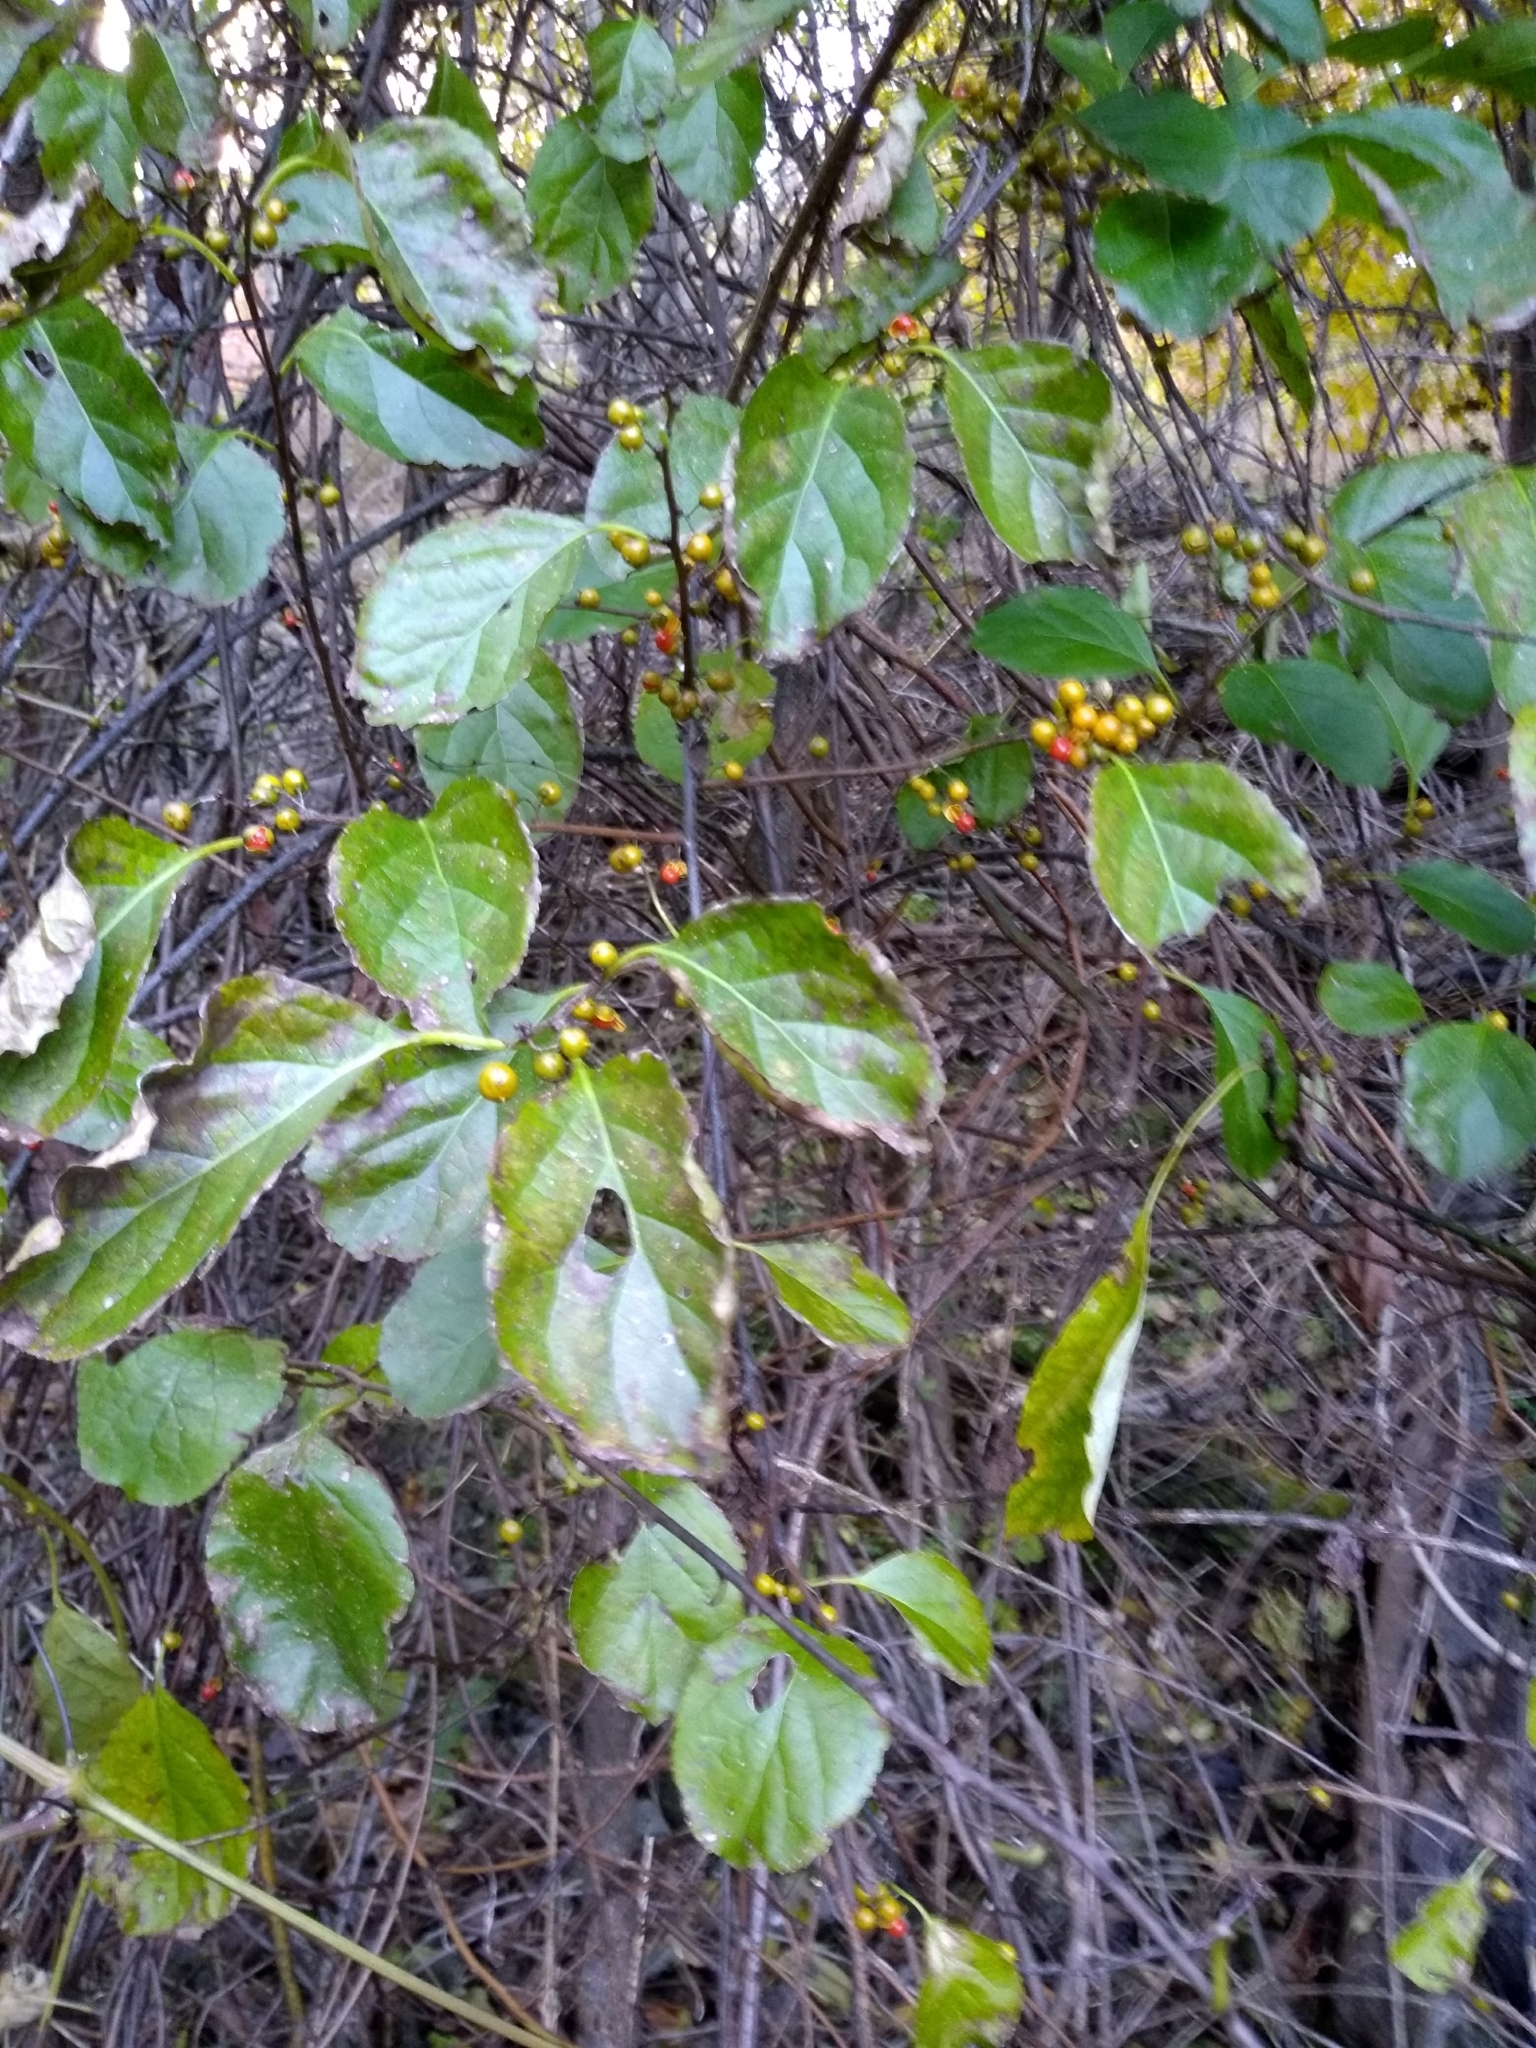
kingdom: Plantae
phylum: Tracheophyta
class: Magnoliopsida
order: Celastrales
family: Celastraceae
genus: Celastrus
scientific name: Celastrus orbiculatus
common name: Oriental bittersweet
